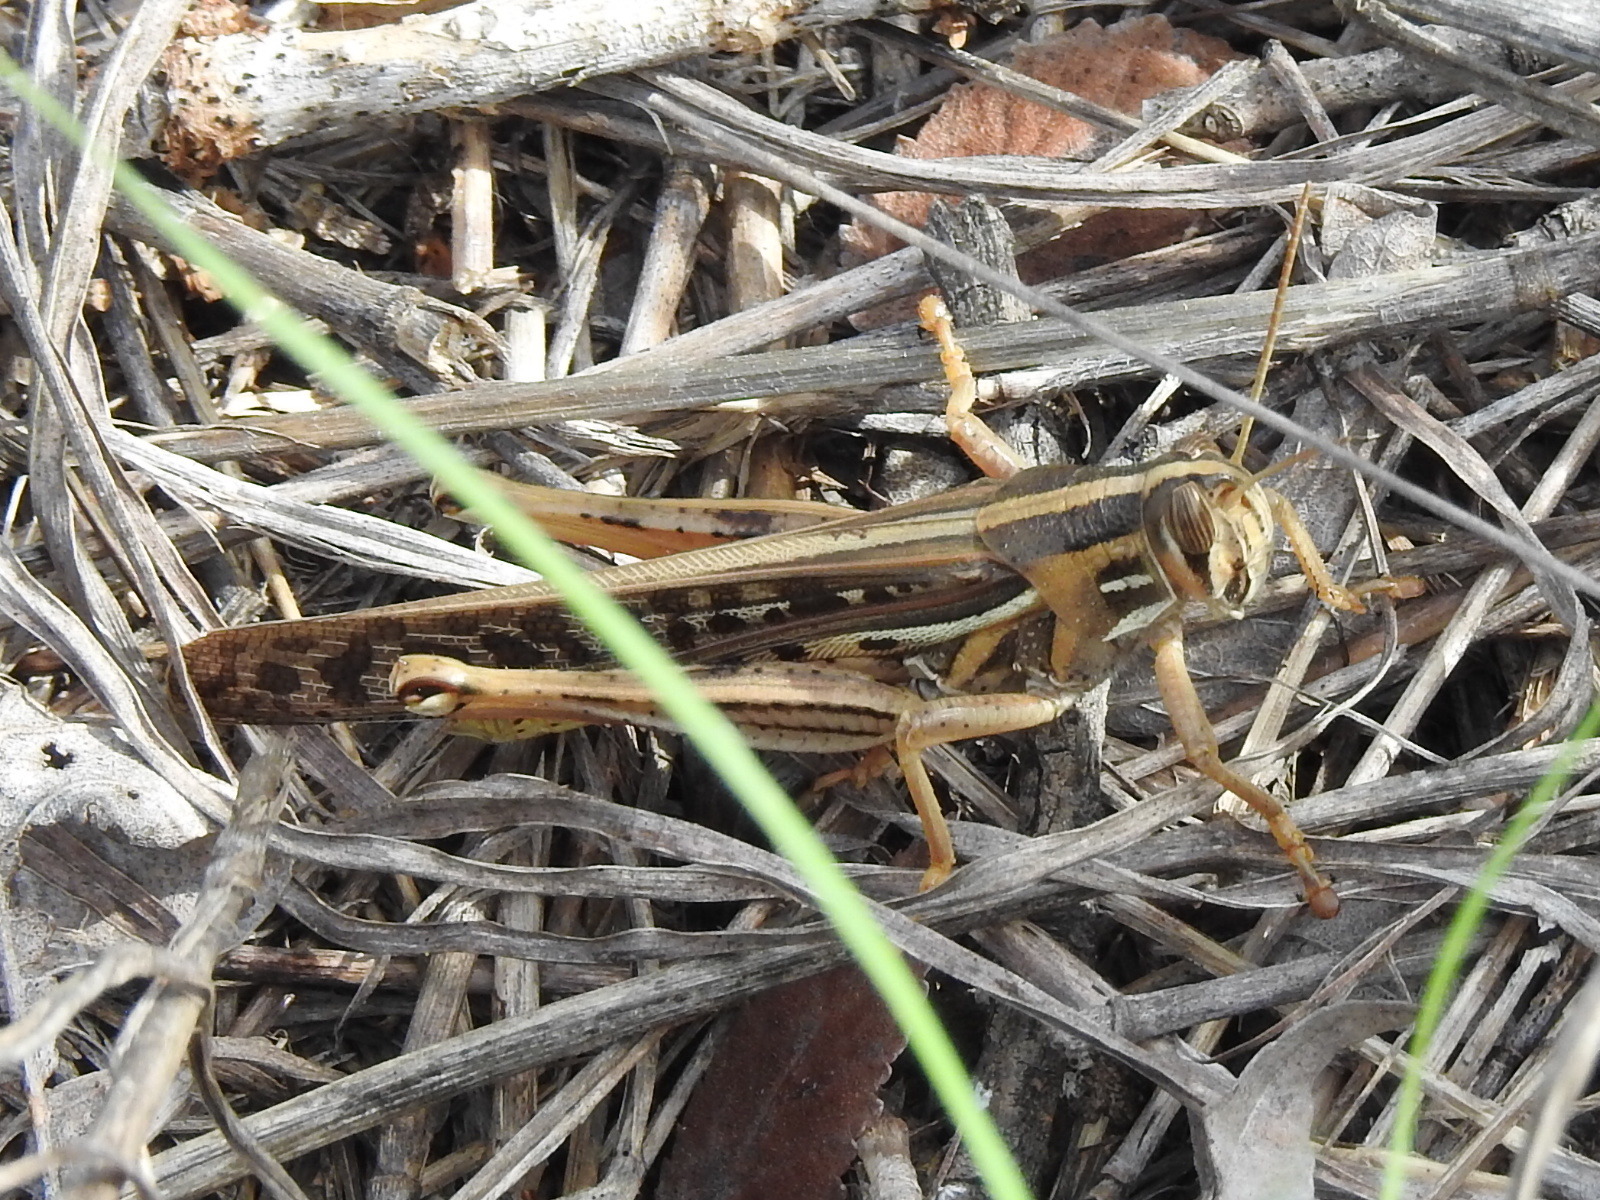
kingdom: Animalia
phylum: Arthropoda
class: Insecta
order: Orthoptera
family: Acrididae
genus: Schistocerca
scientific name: Schistocerca americana
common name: American bird locust
